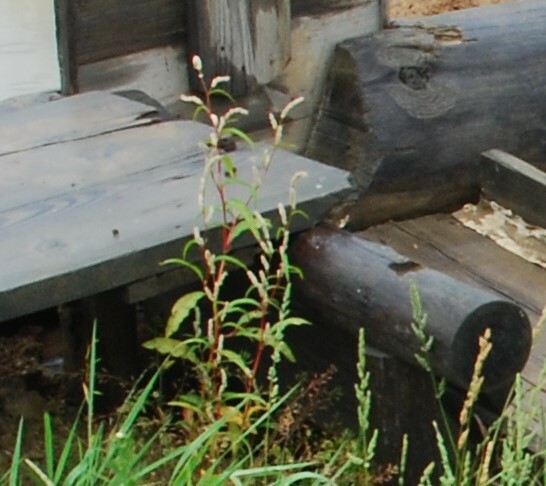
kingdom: Plantae
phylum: Tracheophyta
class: Magnoliopsida
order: Caryophyllales
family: Polygonaceae
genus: Persicaria
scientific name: Persicaria lapathifolia
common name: Curlytop knotweed
